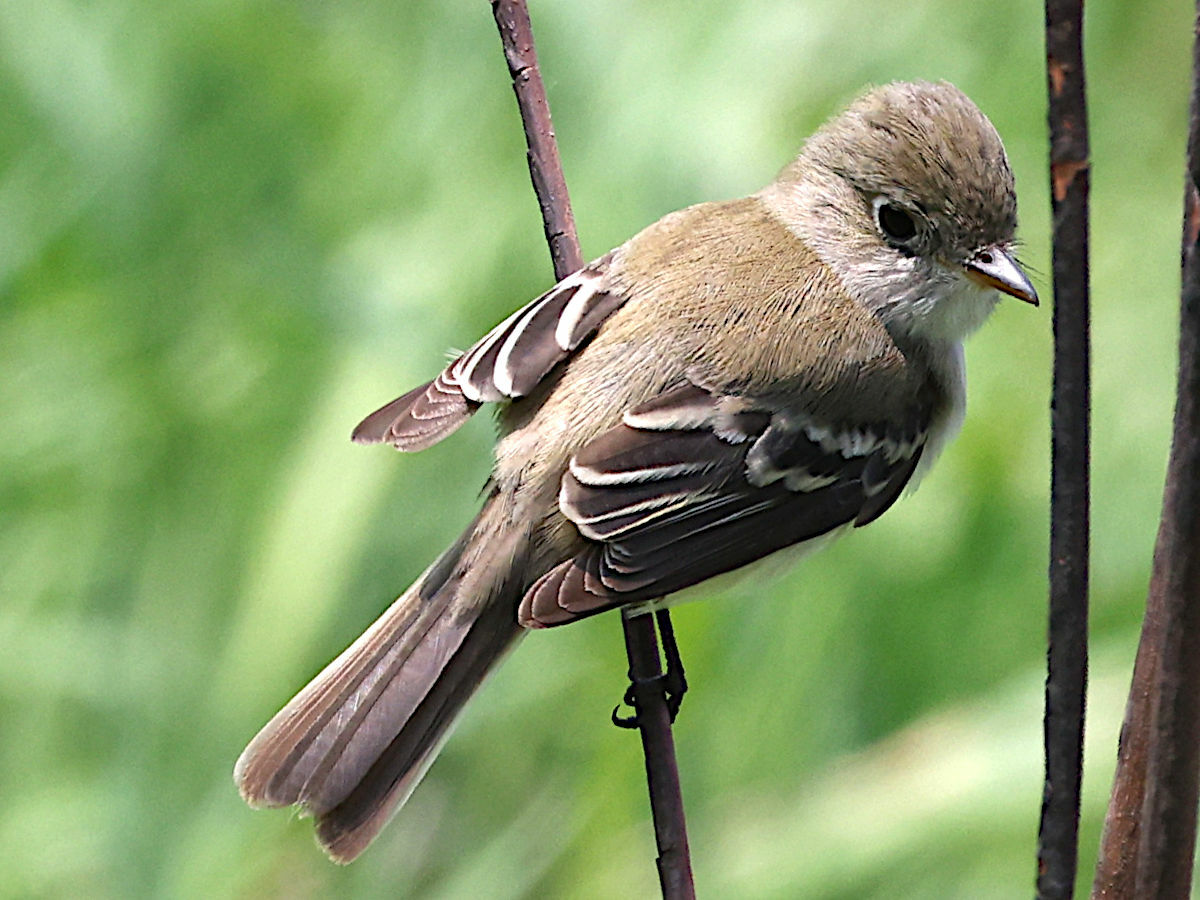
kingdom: Animalia
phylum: Chordata
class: Aves
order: Passeriformes
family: Tyrannidae
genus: Empidonax
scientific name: Empidonax minimus
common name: Least flycatcher
